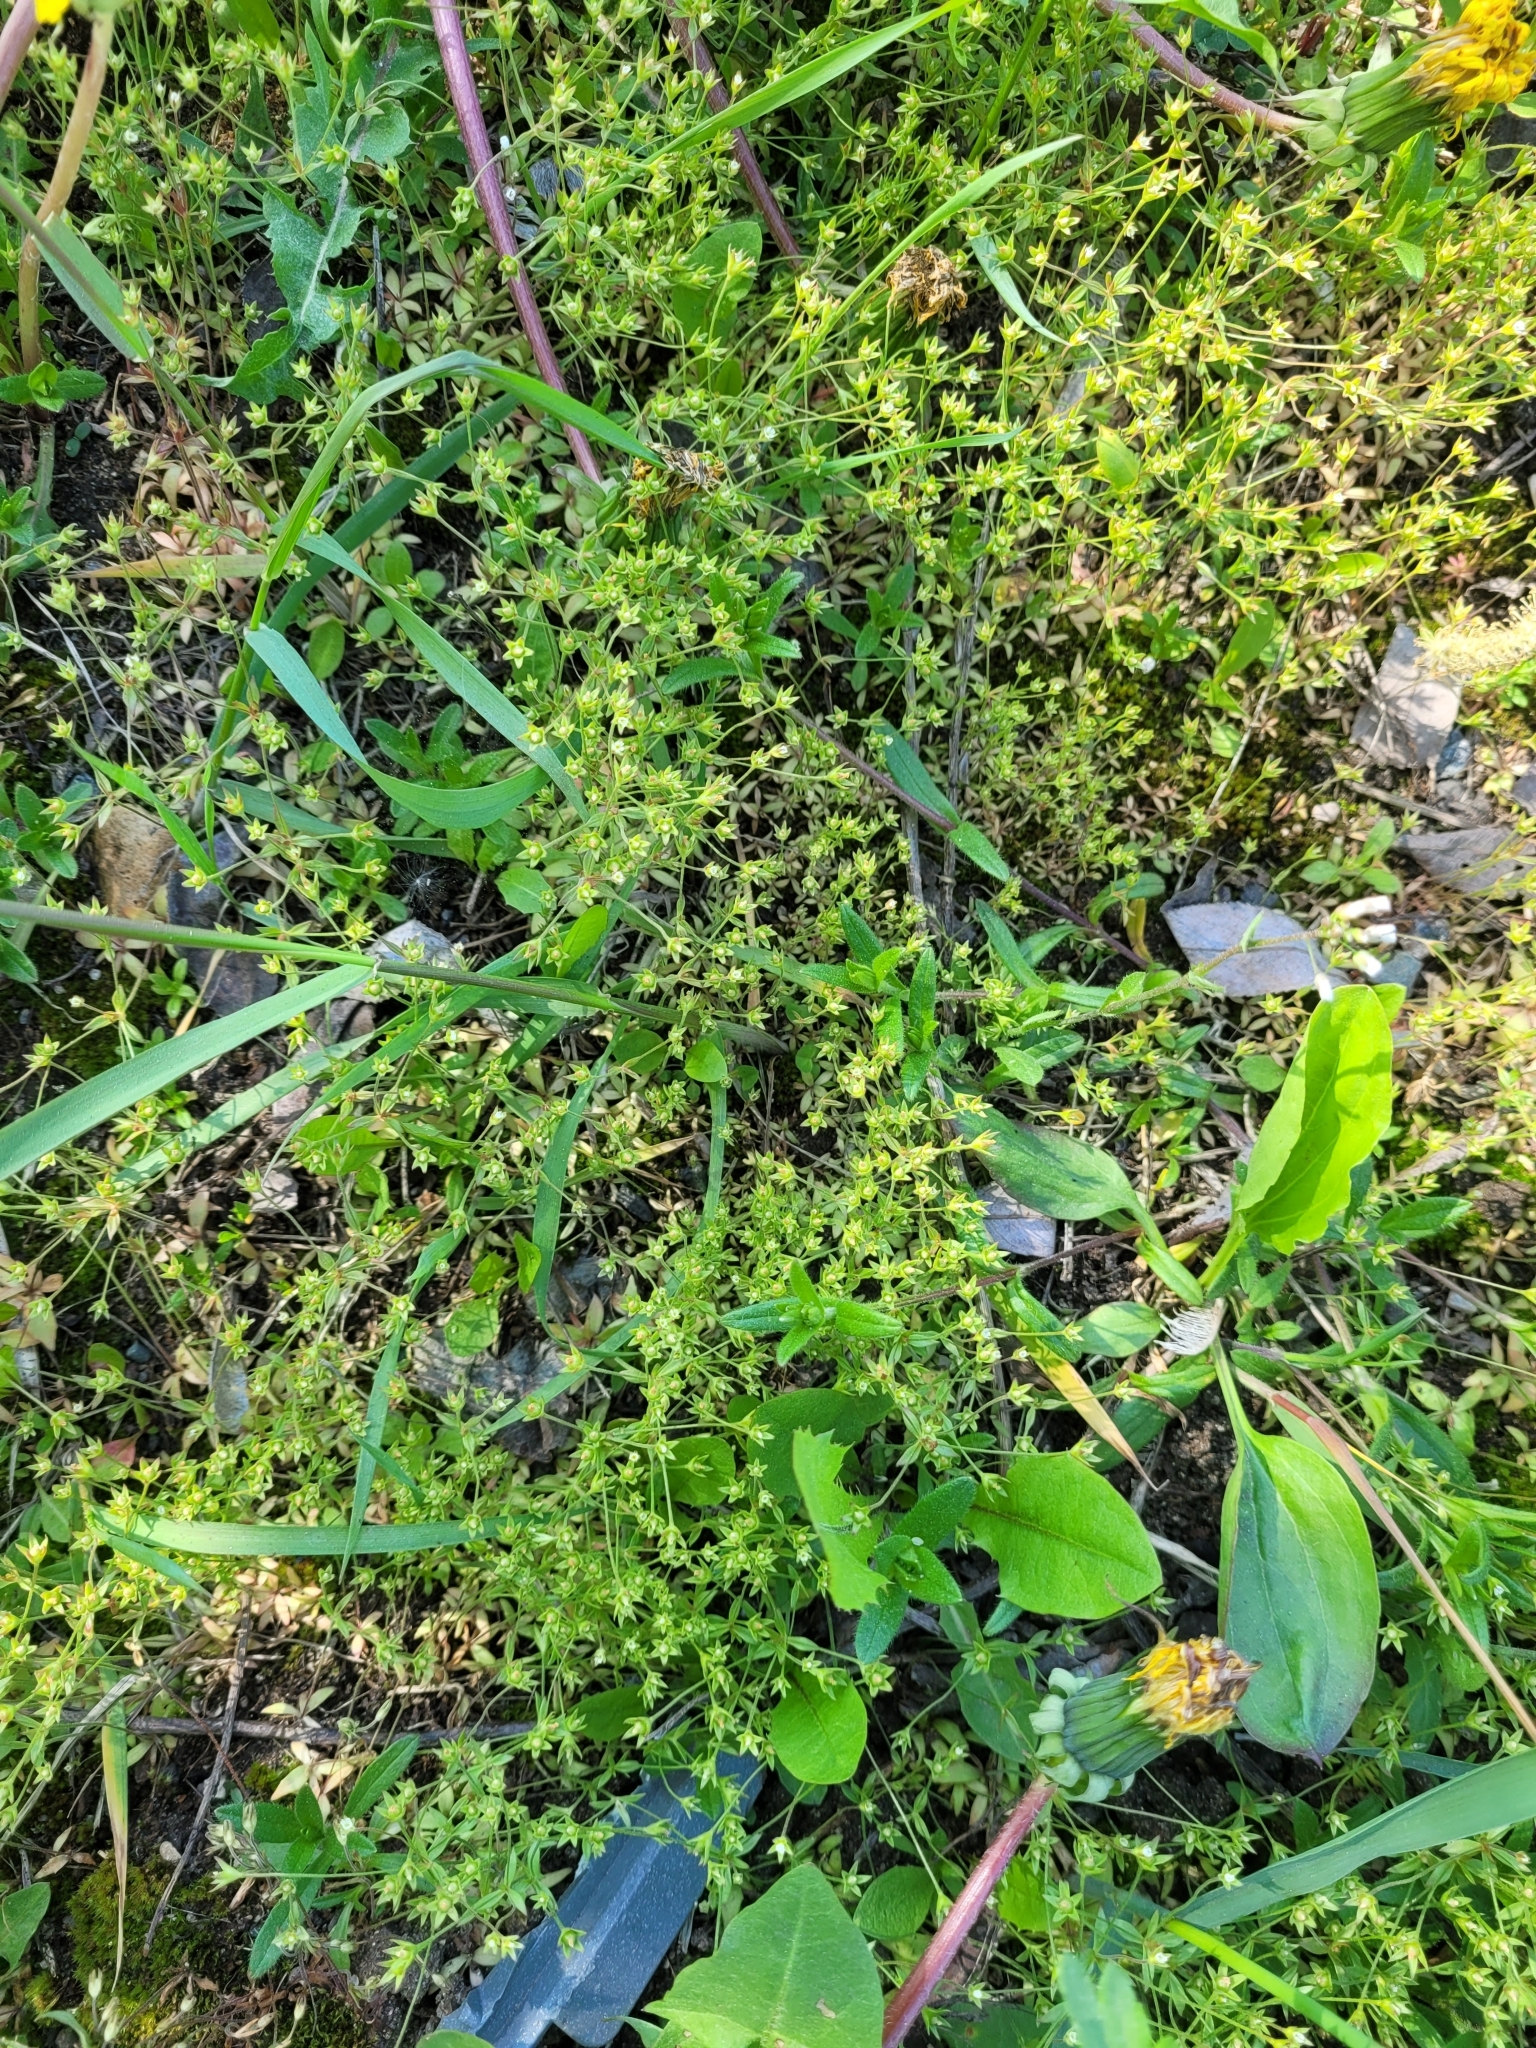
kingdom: Plantae
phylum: Tracheophyta
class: Magnoliopsida
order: Ericales
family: Primulaceae
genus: Androsace
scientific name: Androsace elongata
